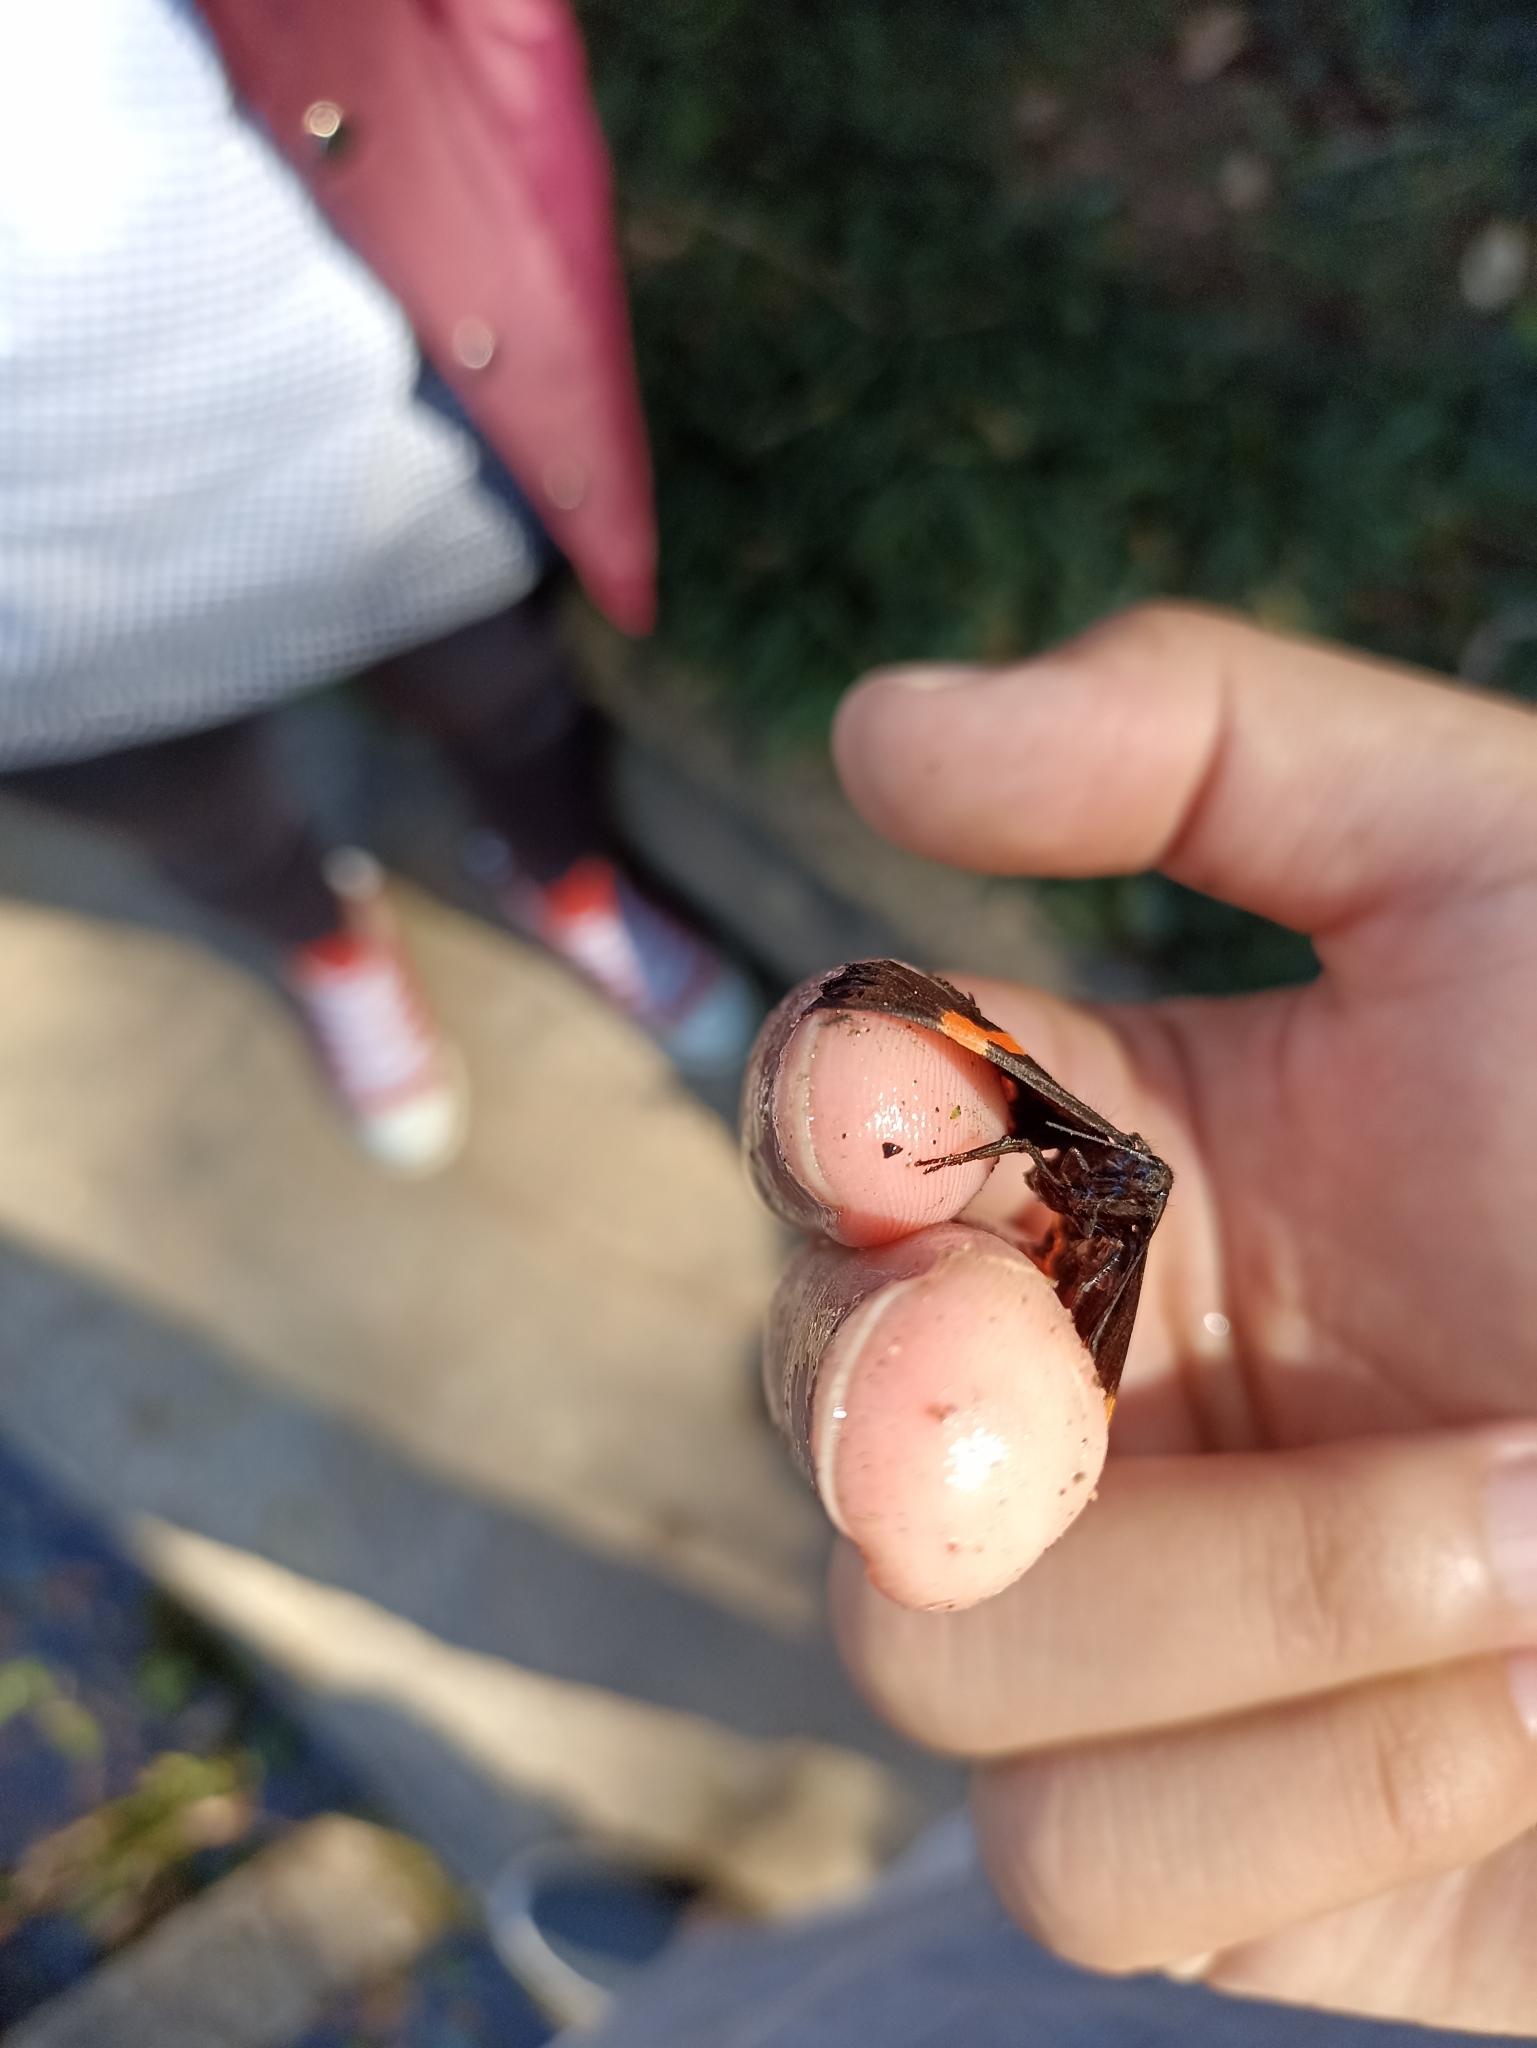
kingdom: Animalia
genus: Ancyluris
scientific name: Ancyluris aulestes
